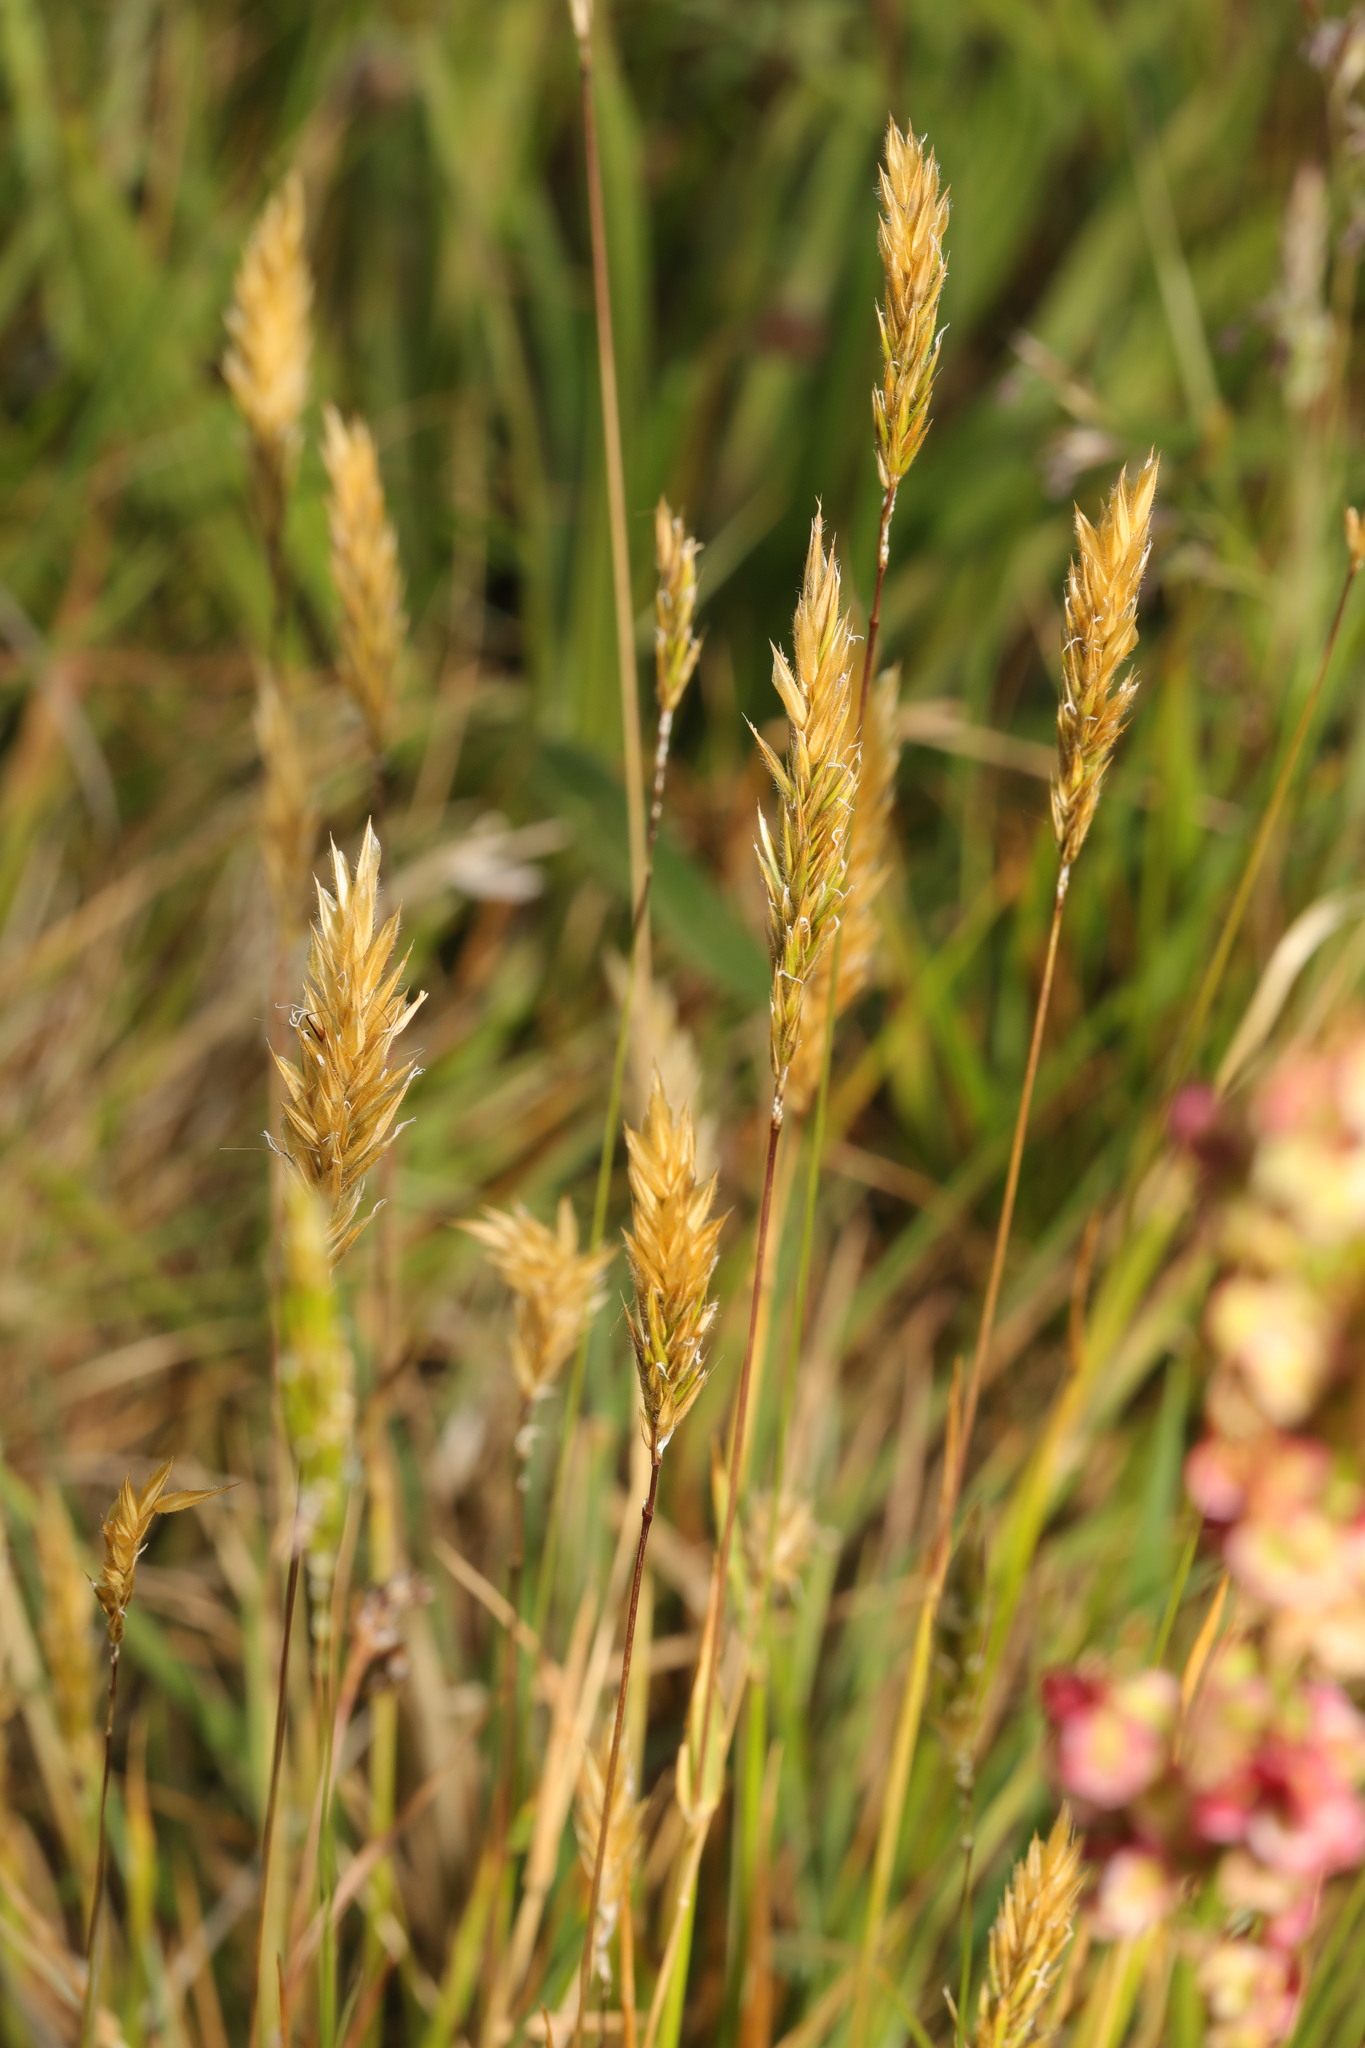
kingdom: Plantae
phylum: Tracheophyta
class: Liliopsida
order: Poales
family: Poaceae
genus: Anthoxanthum
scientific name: Anthoxanthum odoratum
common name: Sweet vernalgrass
